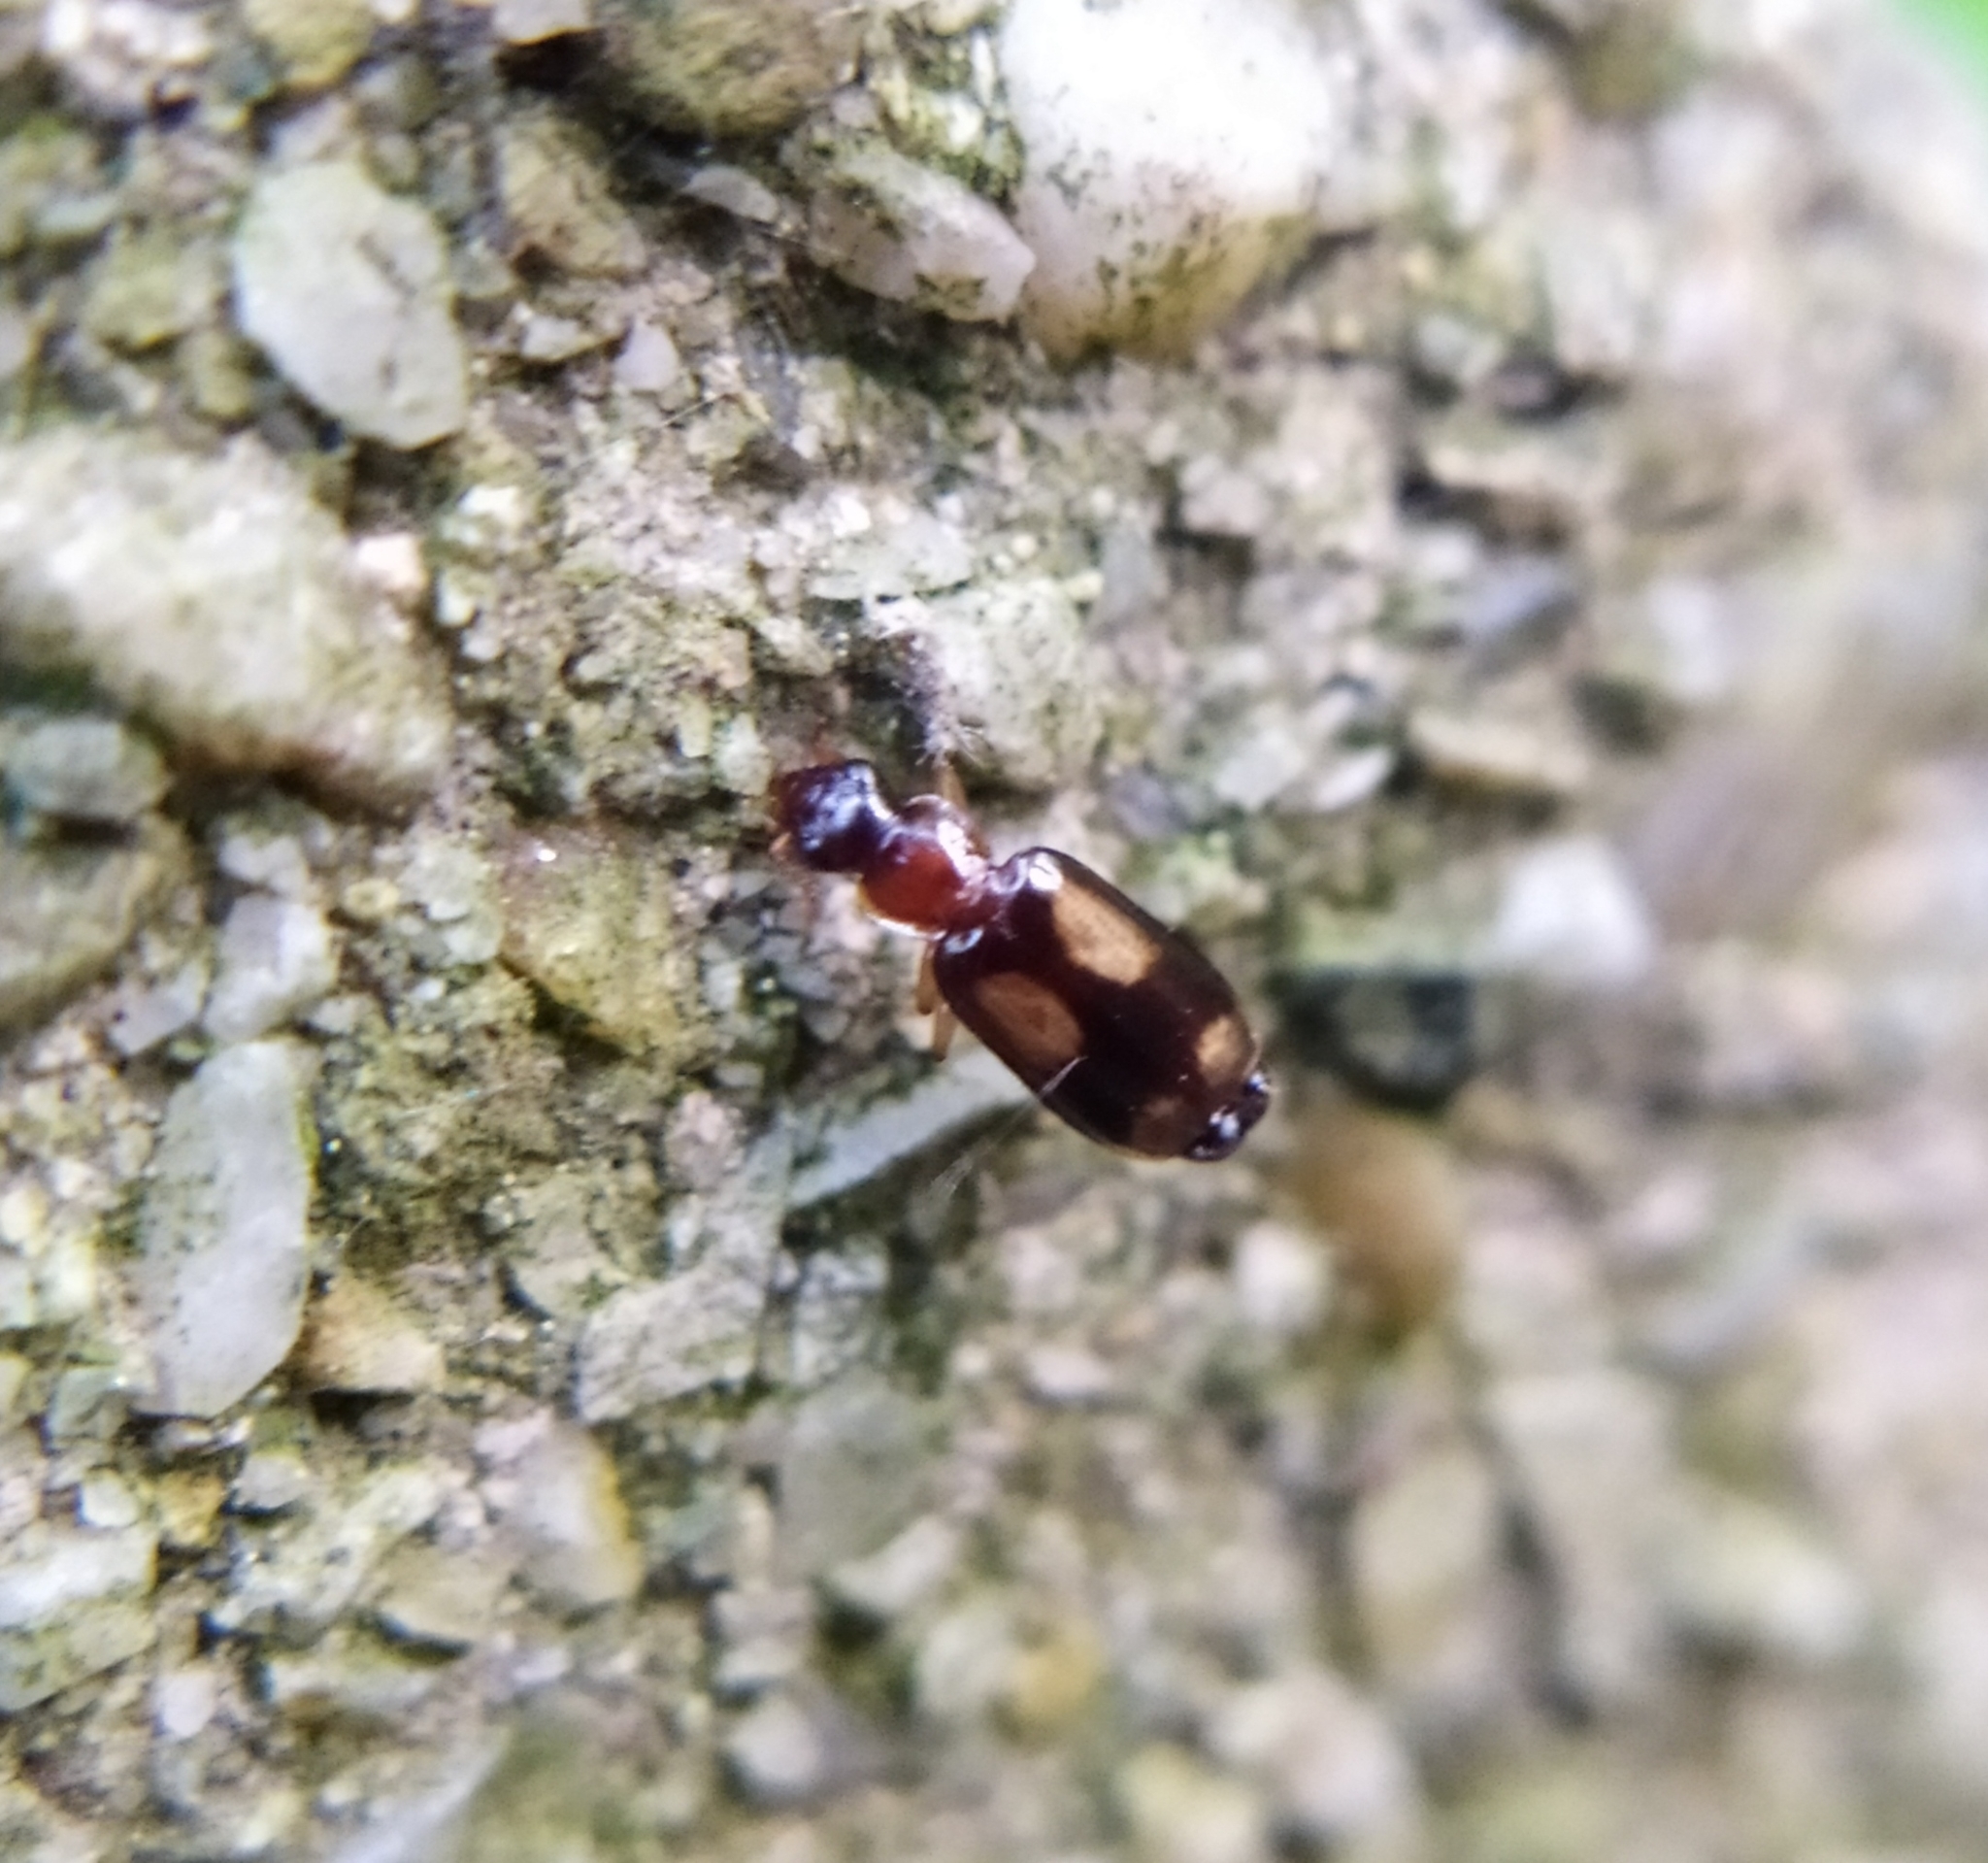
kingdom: Animalia
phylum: Arthropoda
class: Insecta
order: Coleoptera
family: Carabidae
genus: Dromius
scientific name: Dromius quadrimaculatus
